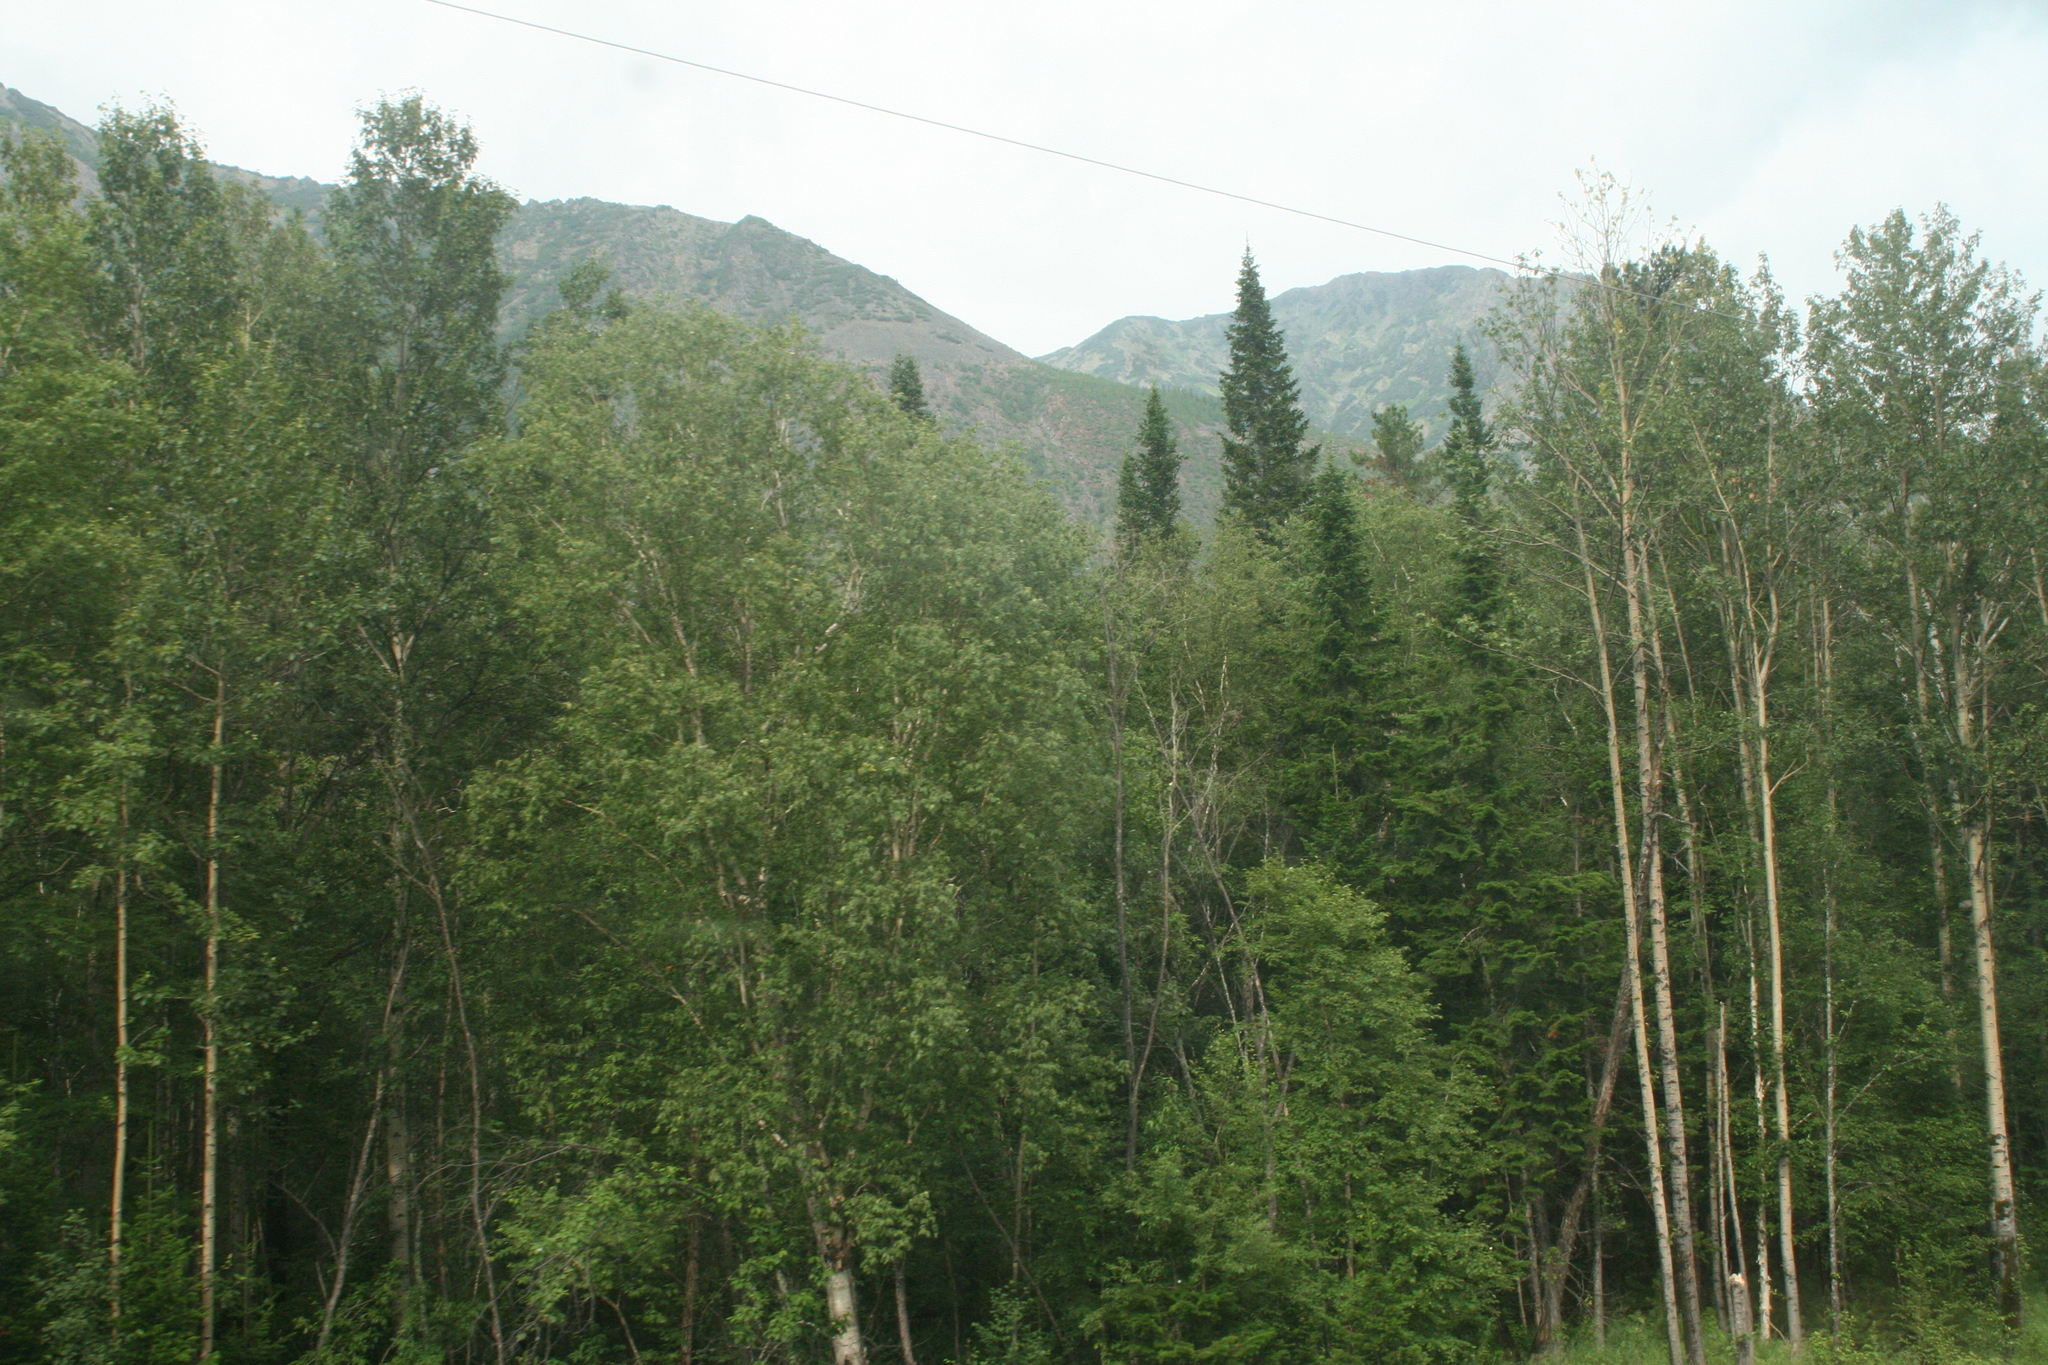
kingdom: Plantae
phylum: Tracheophyta
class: Pinopsida
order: Pinales
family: Pinaceae
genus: Abies
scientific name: Abies sibirica
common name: Siberian fir
